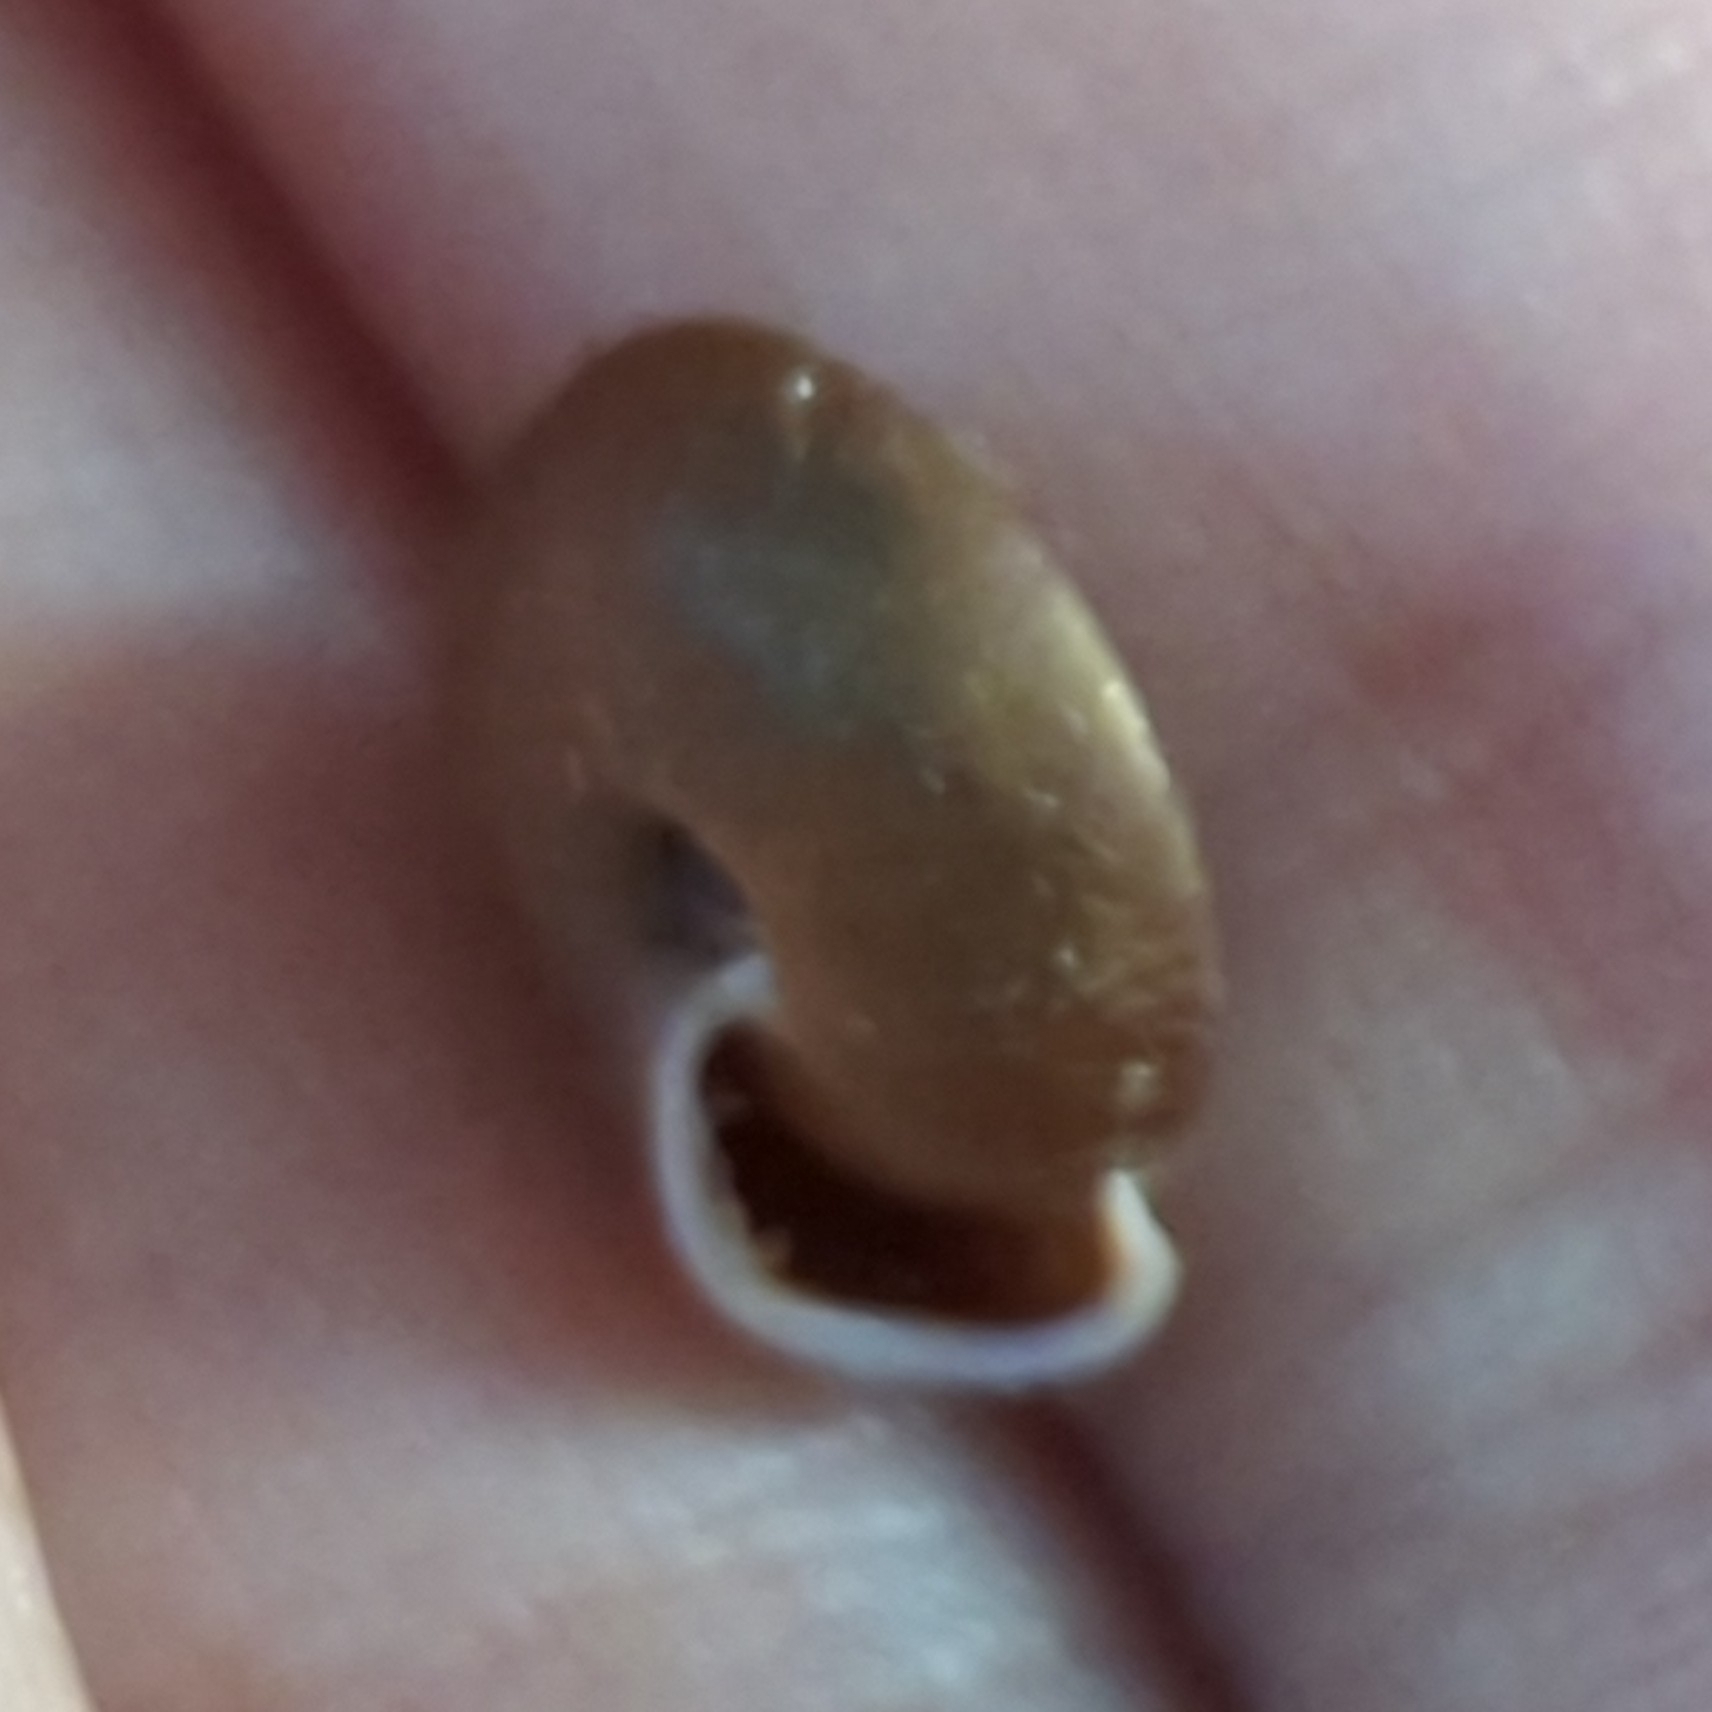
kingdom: Animalia
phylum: Mollusca
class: Gastropoda
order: Stylommatophora
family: Helicodontidae
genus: Lindholmiola
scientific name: Lindholmiola lens
